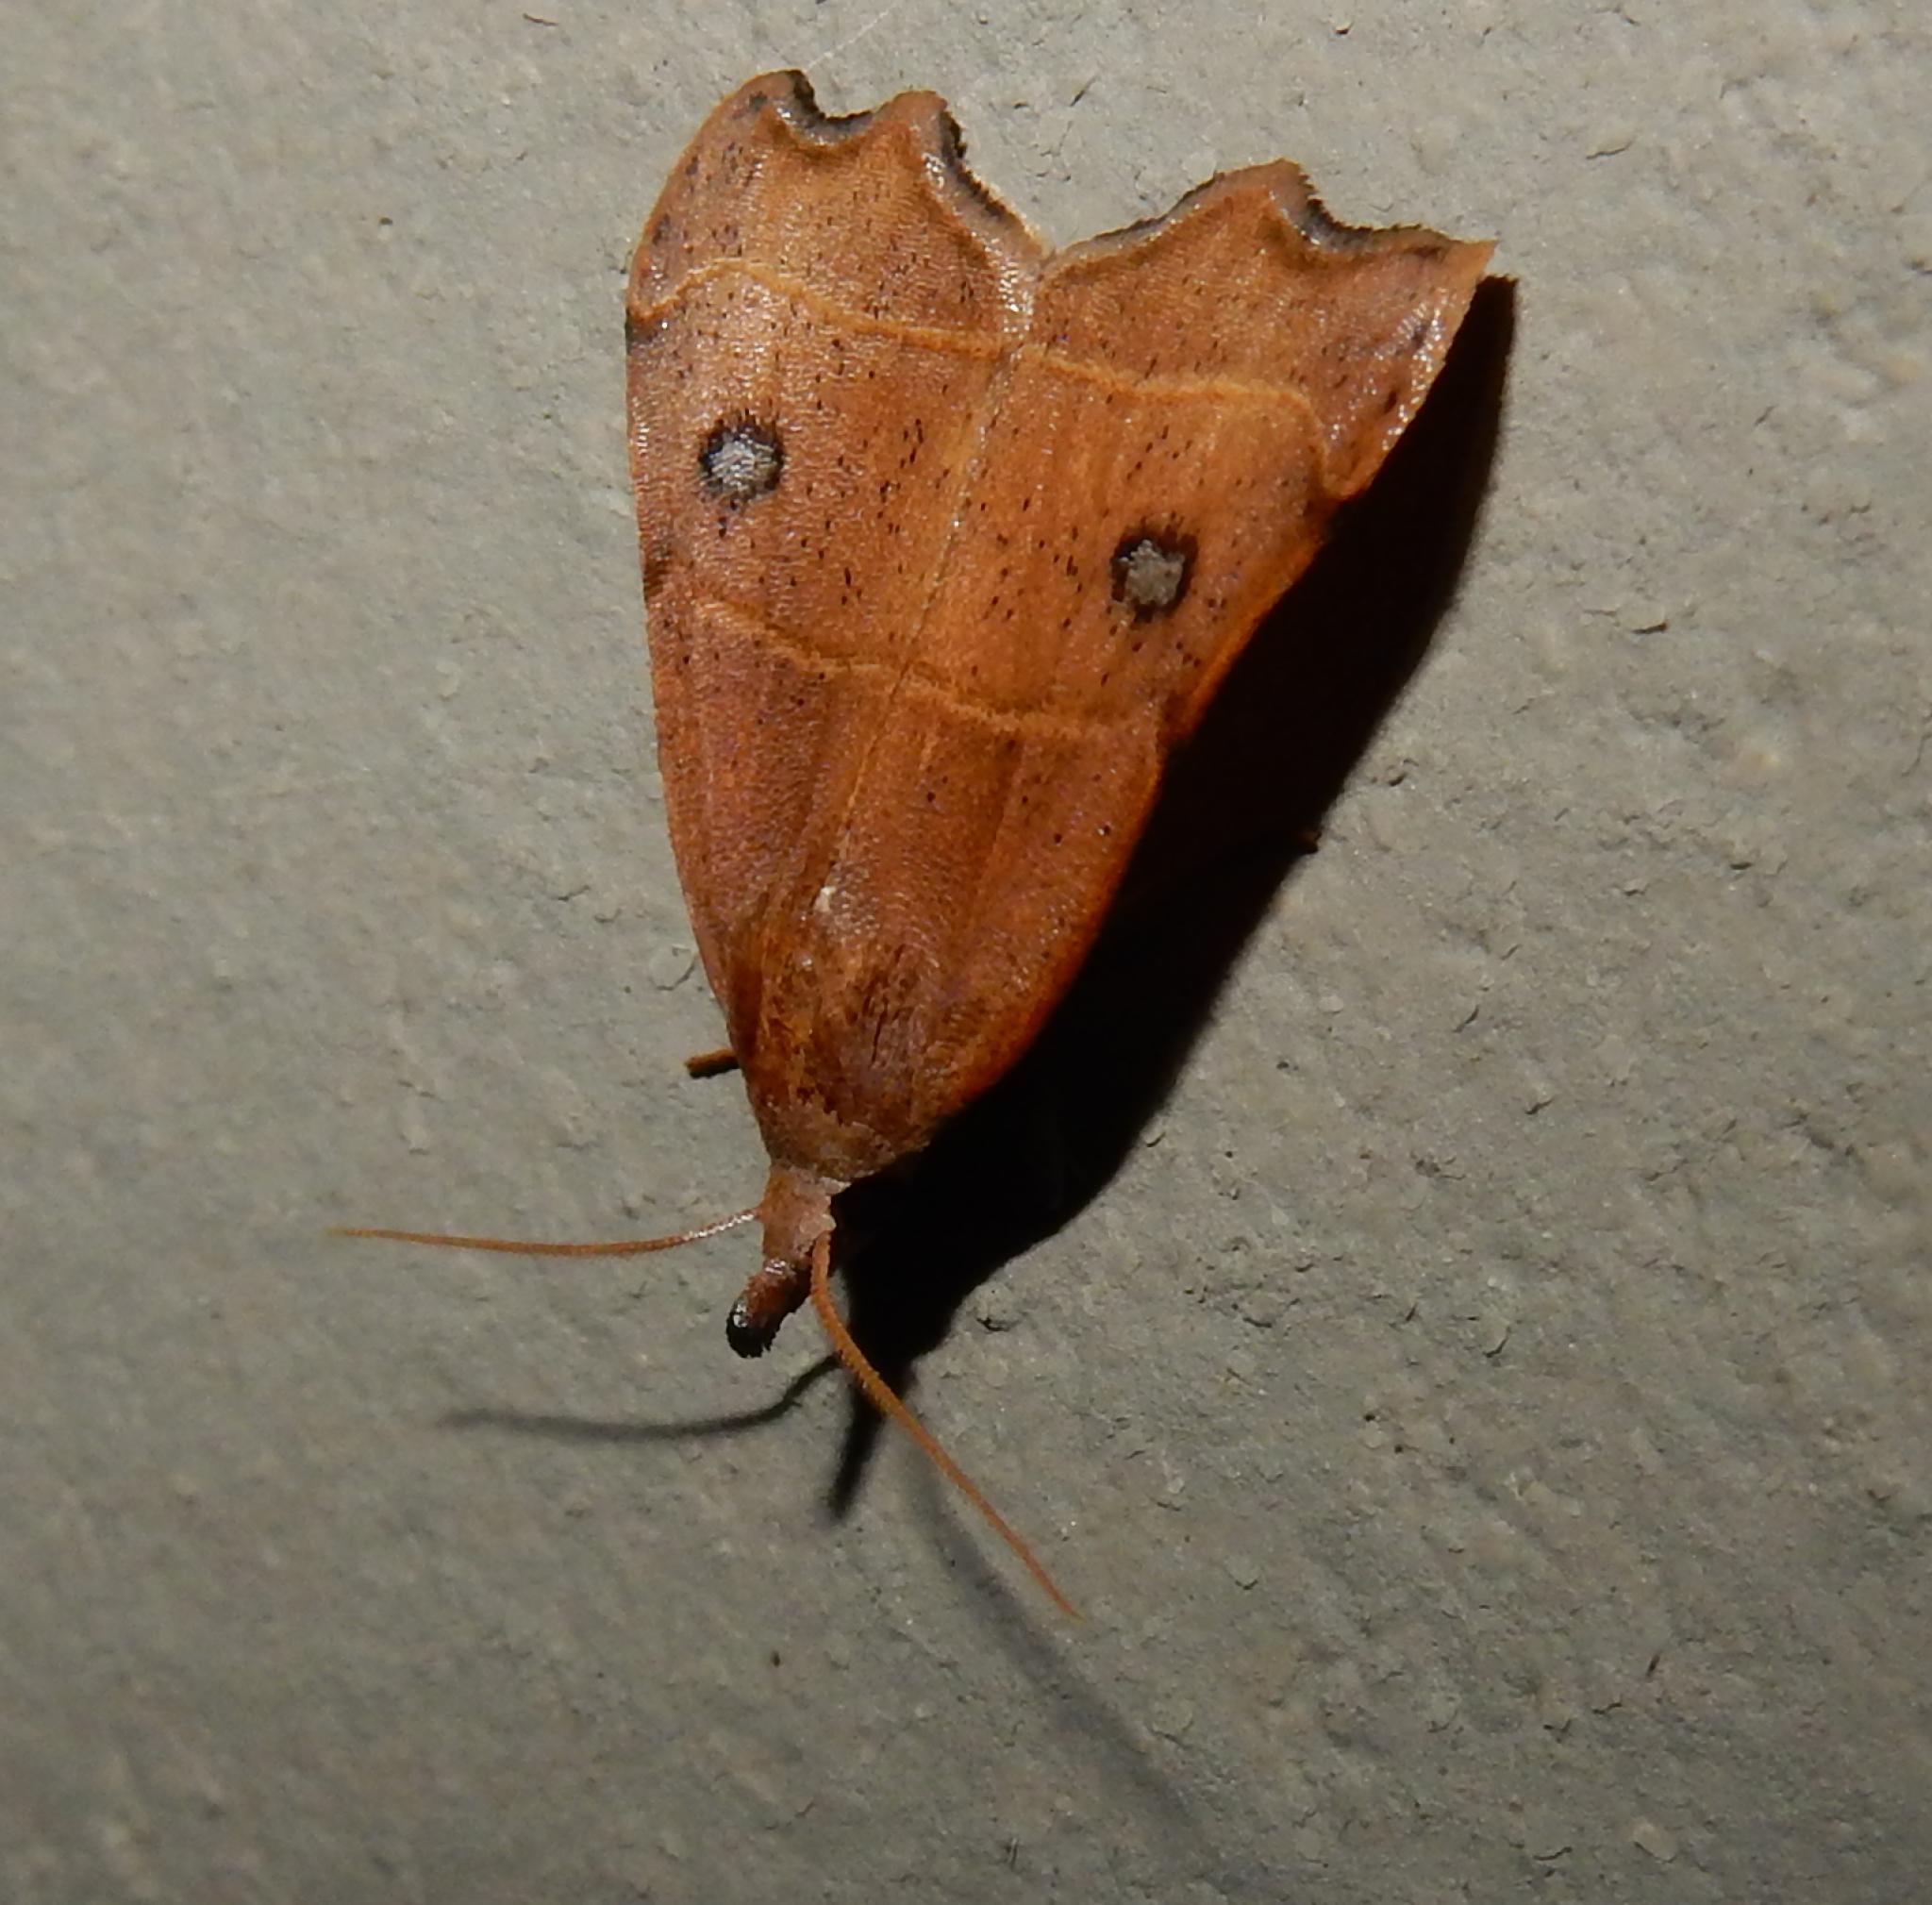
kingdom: Animalia
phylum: Arthropoda
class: Insecta
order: Lepidoptera
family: Erebidae
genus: Hondryches
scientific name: Hondryches phalaeniformis
